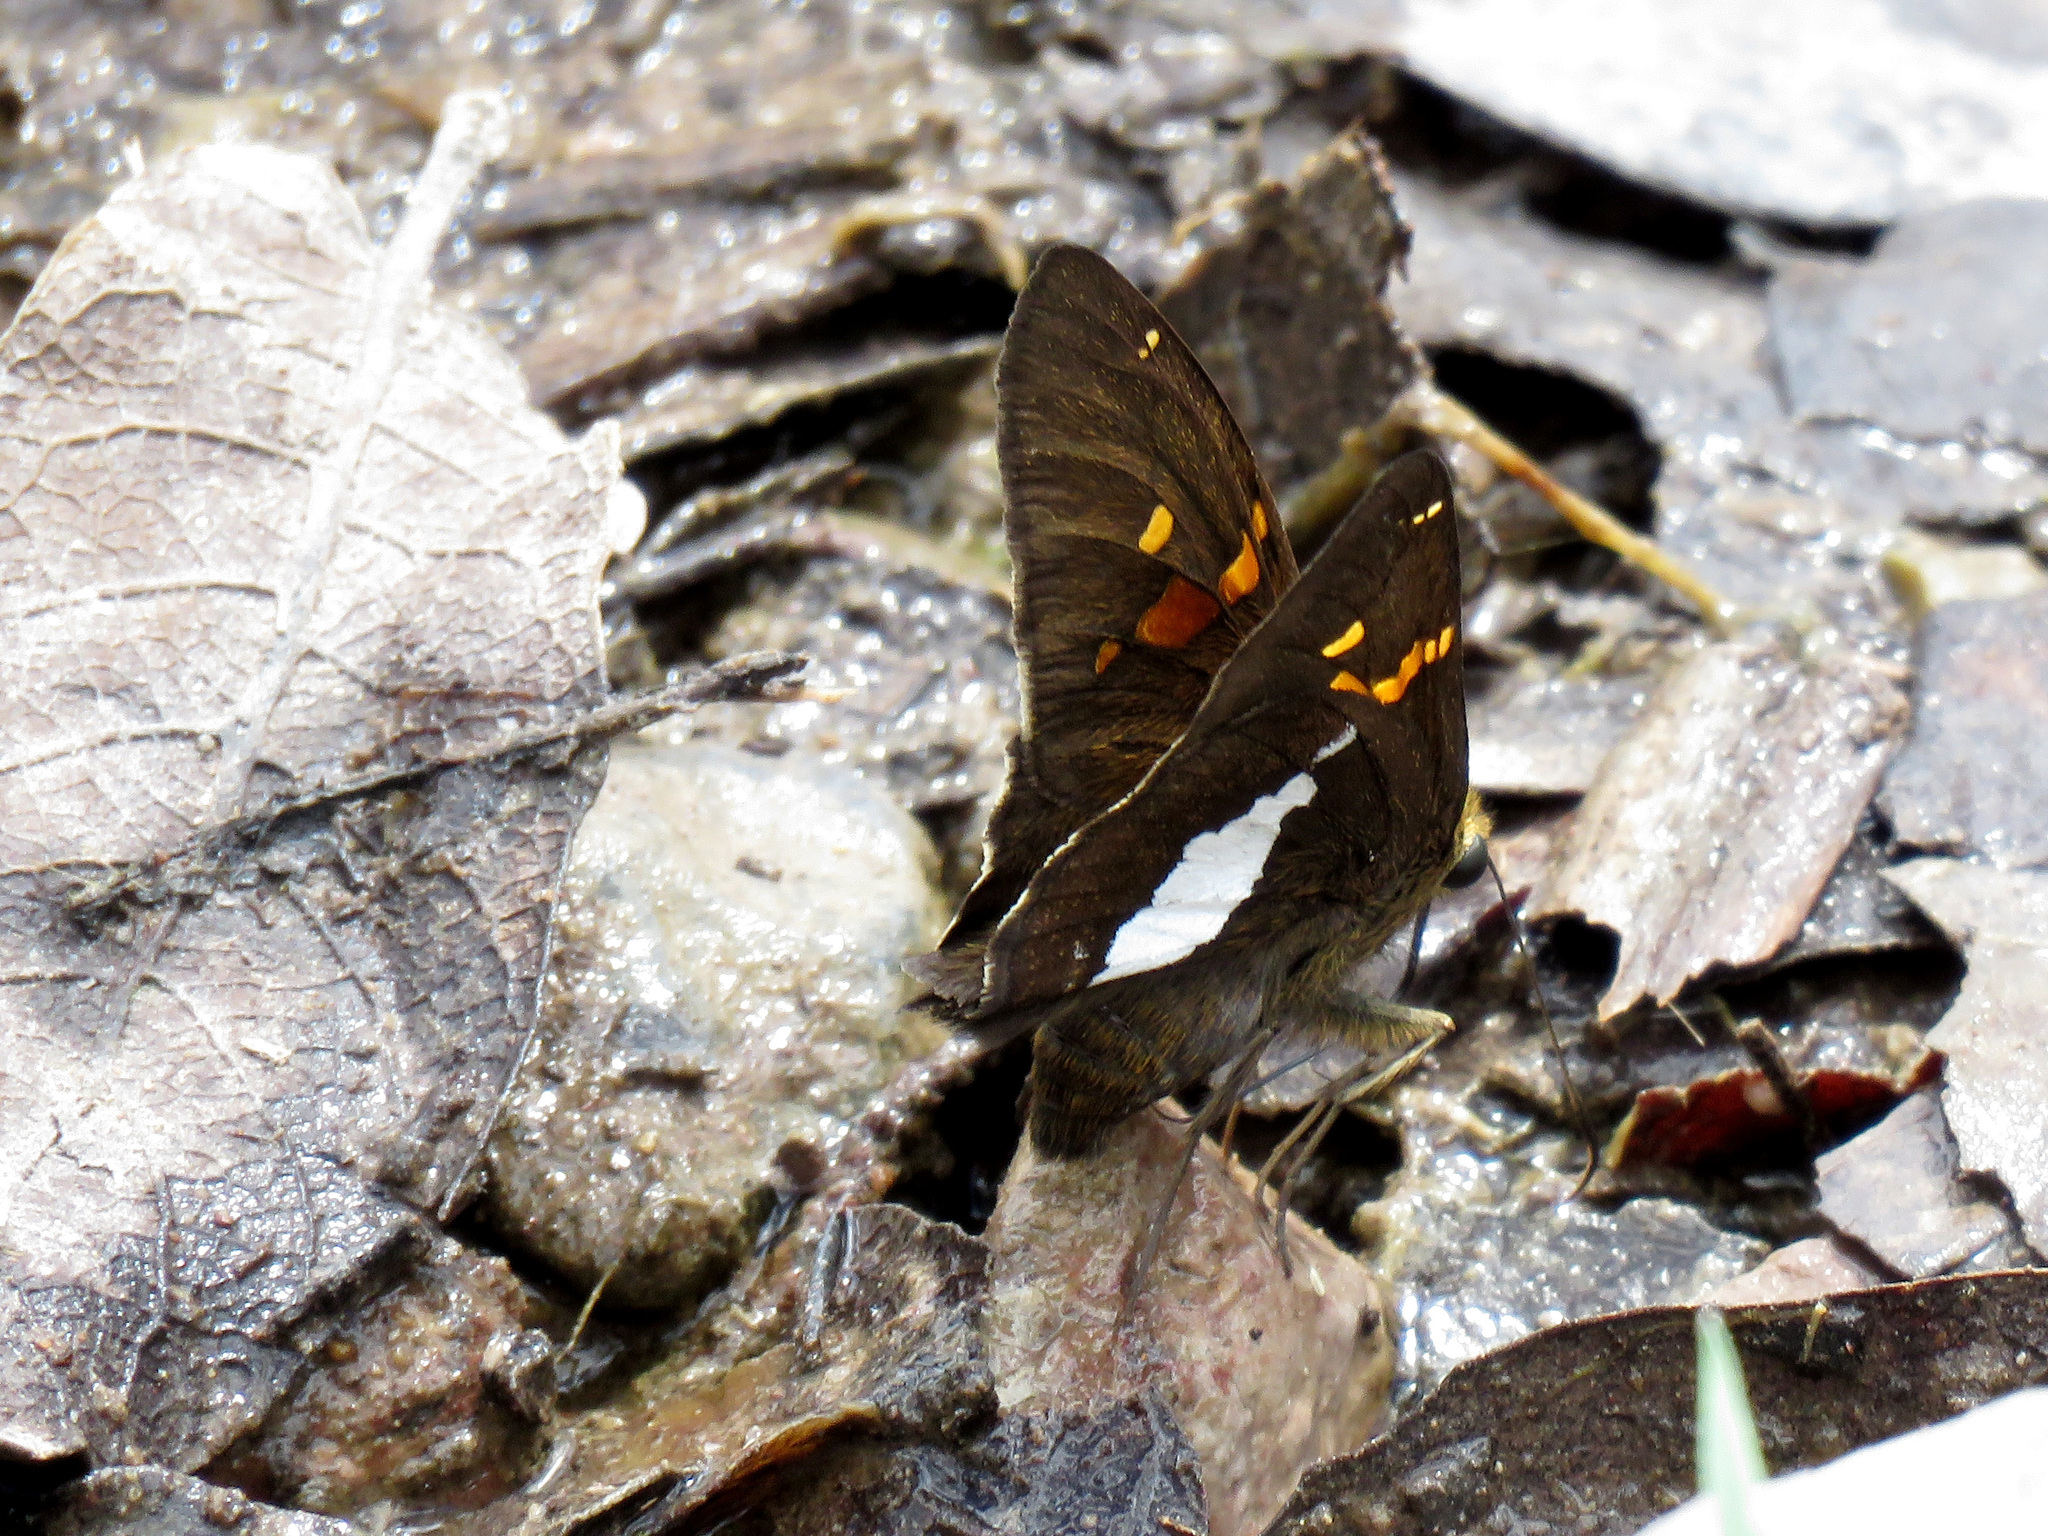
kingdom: Animalia
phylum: Arthropoda
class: Insecta
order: Lepidoptera
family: Hesperiidae
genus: Epargyreus
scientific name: Epargyreus clarus
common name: Silver-spotted skipper
